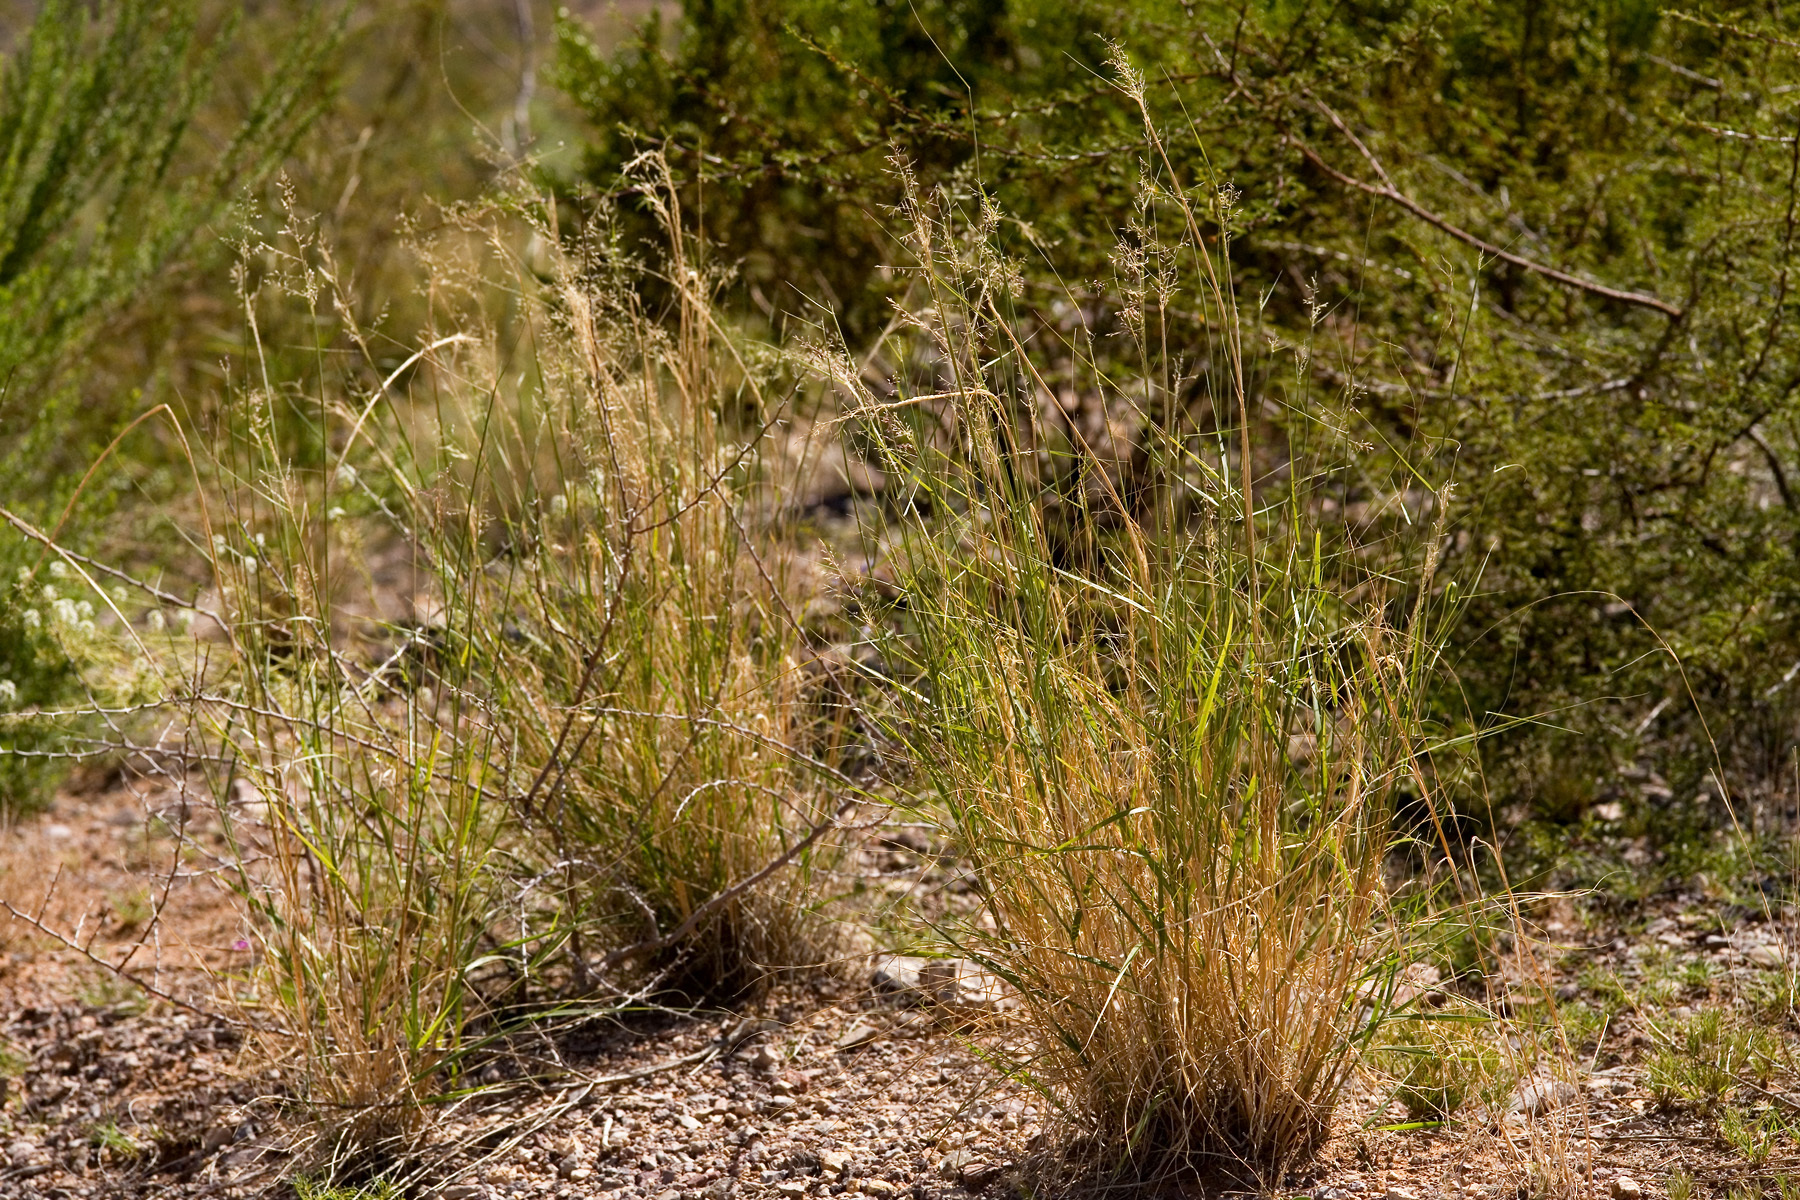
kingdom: Plantae
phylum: Tracheophyta
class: Liliopsida
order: Poales
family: Poaceae
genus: Sporobolus
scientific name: Sporobolus flexuosus
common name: Mesa dropseed
